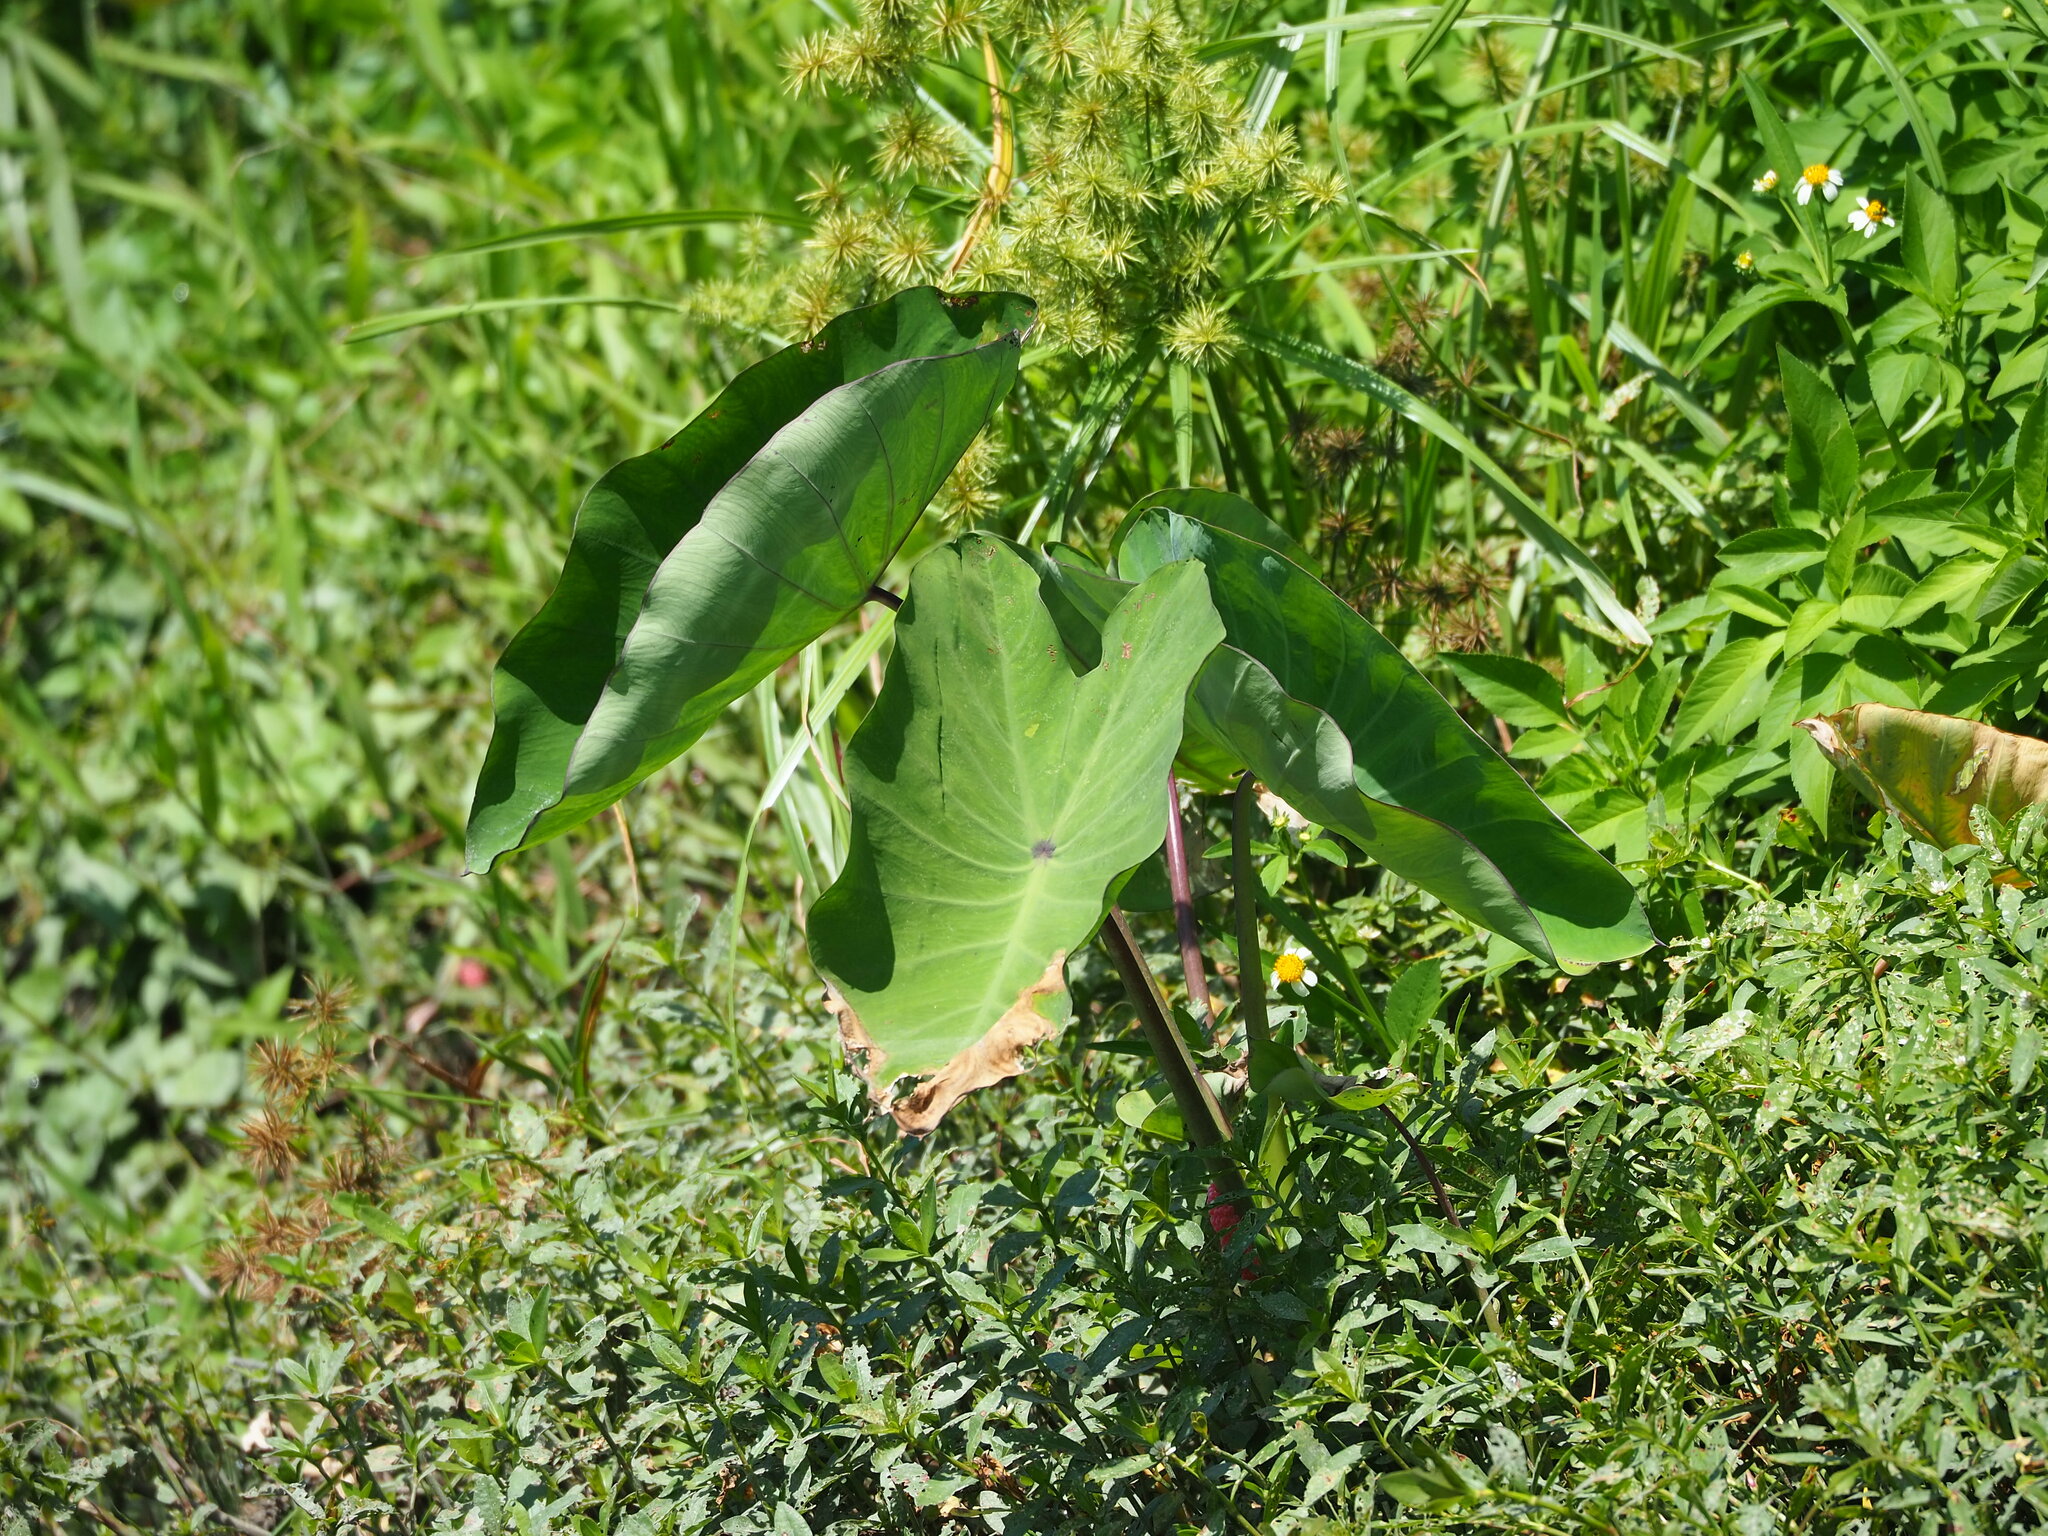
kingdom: Plantae
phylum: Tracheophyta
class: Liliopsida
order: Alismatales
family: Araceae
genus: Colocasia
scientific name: Colocasia esculenta
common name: Taro
